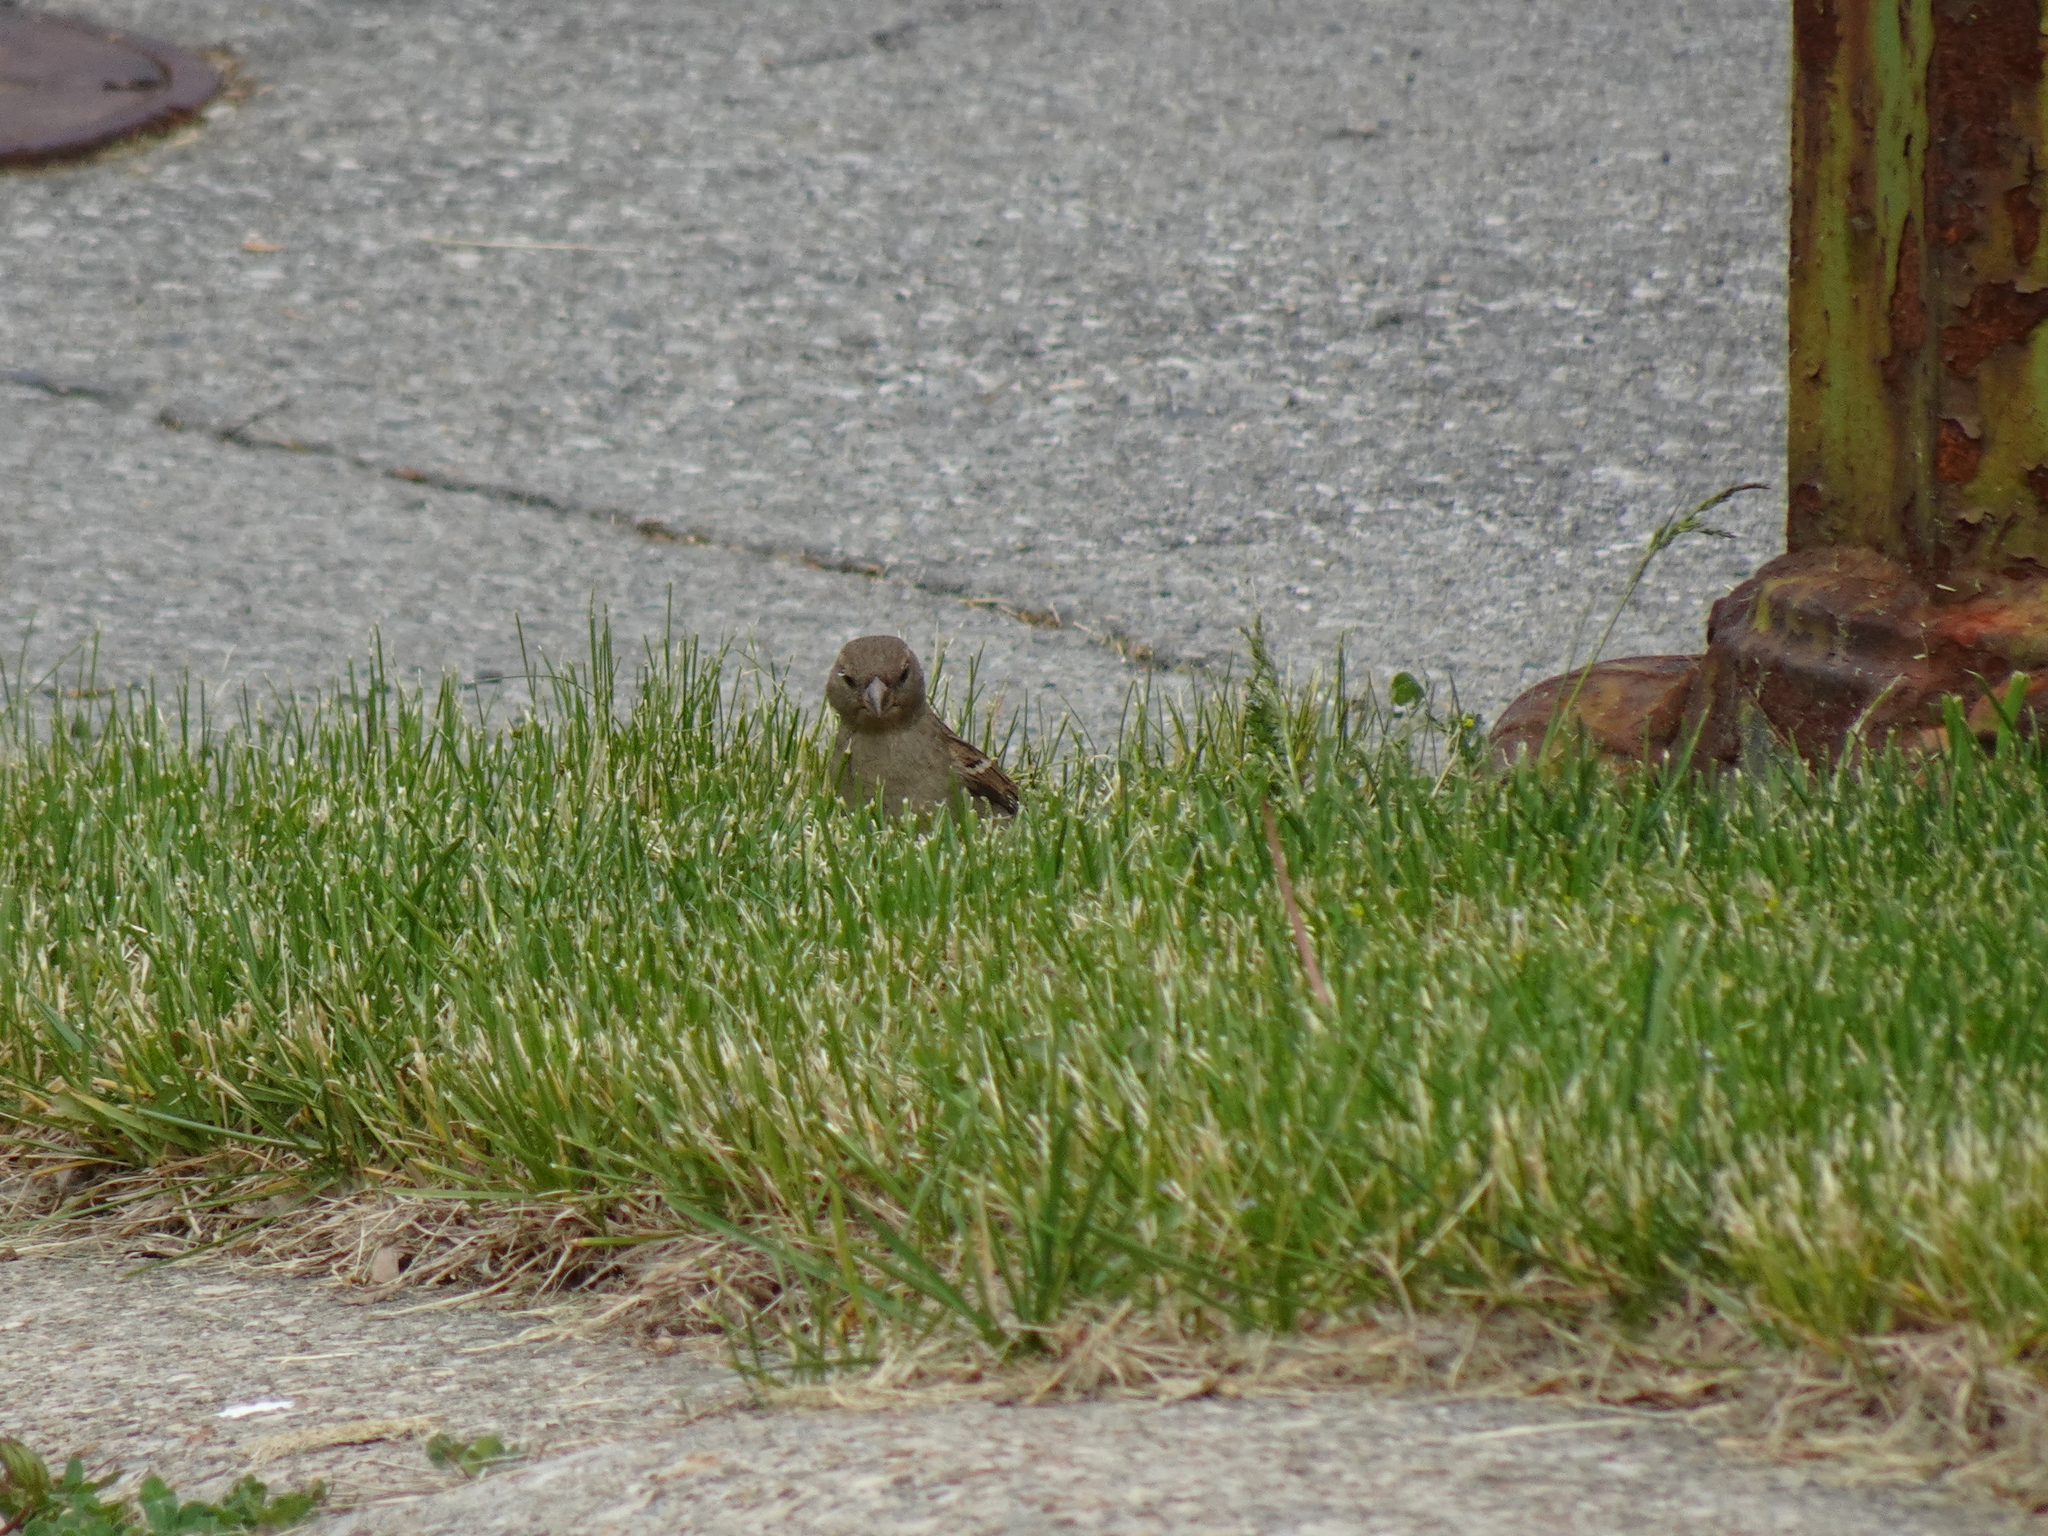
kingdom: Animalia
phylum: Chordata
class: Aves
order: Passeriformes
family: Passeridae
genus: Passer
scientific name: Passer domesticus
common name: House sparrow
